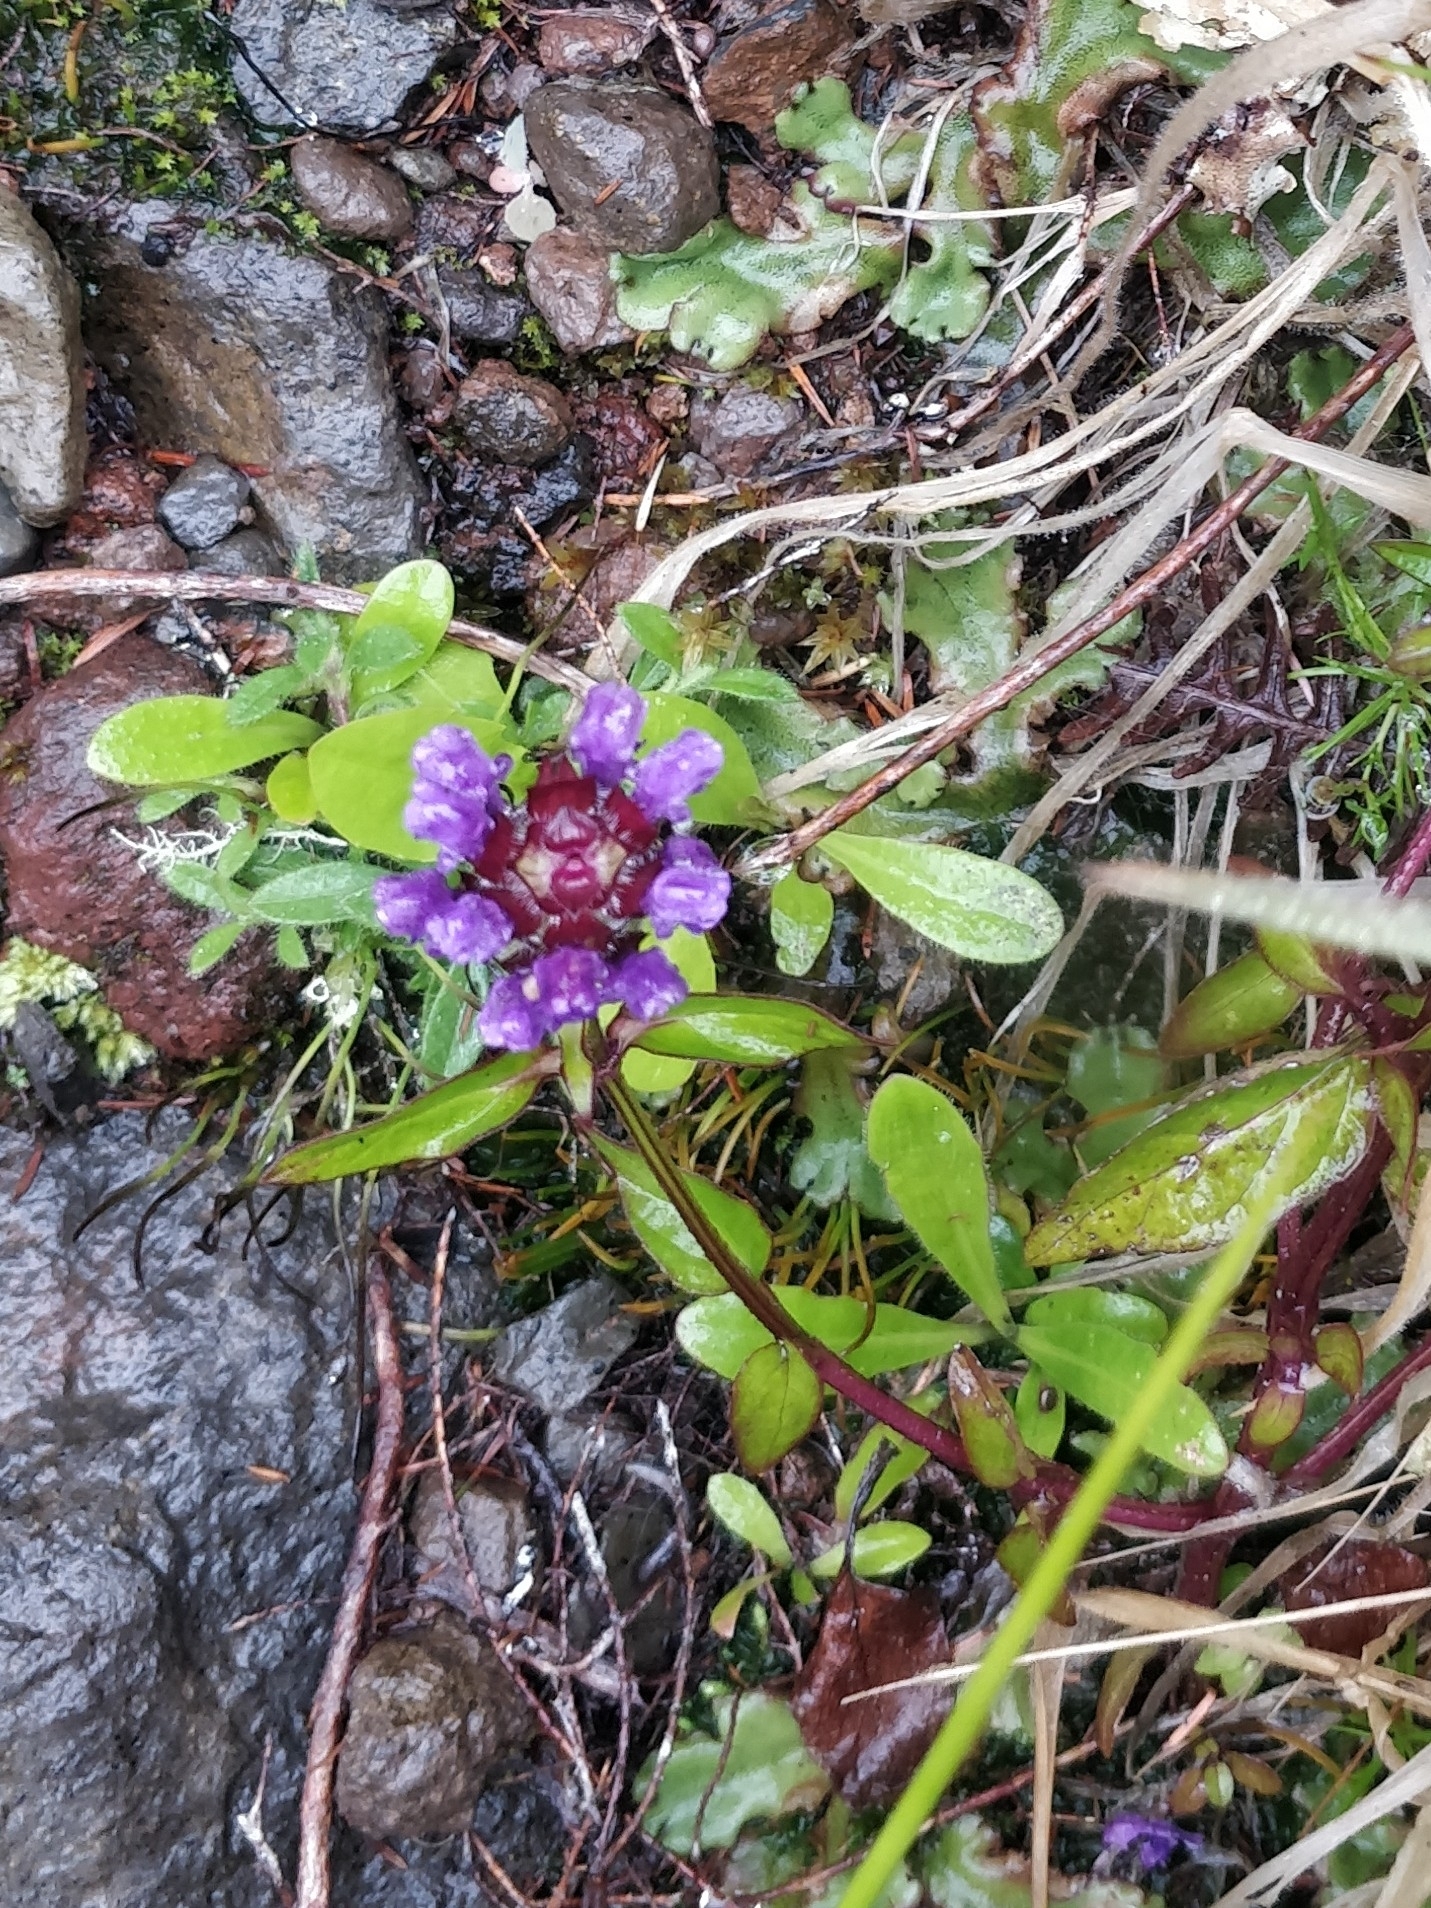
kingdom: Plantae
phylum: Tracheophyta
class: Magnoliopsida
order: Lamiales
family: Lamiaceae
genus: Prunella
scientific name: Prunella vulgaris
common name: Heal-all
